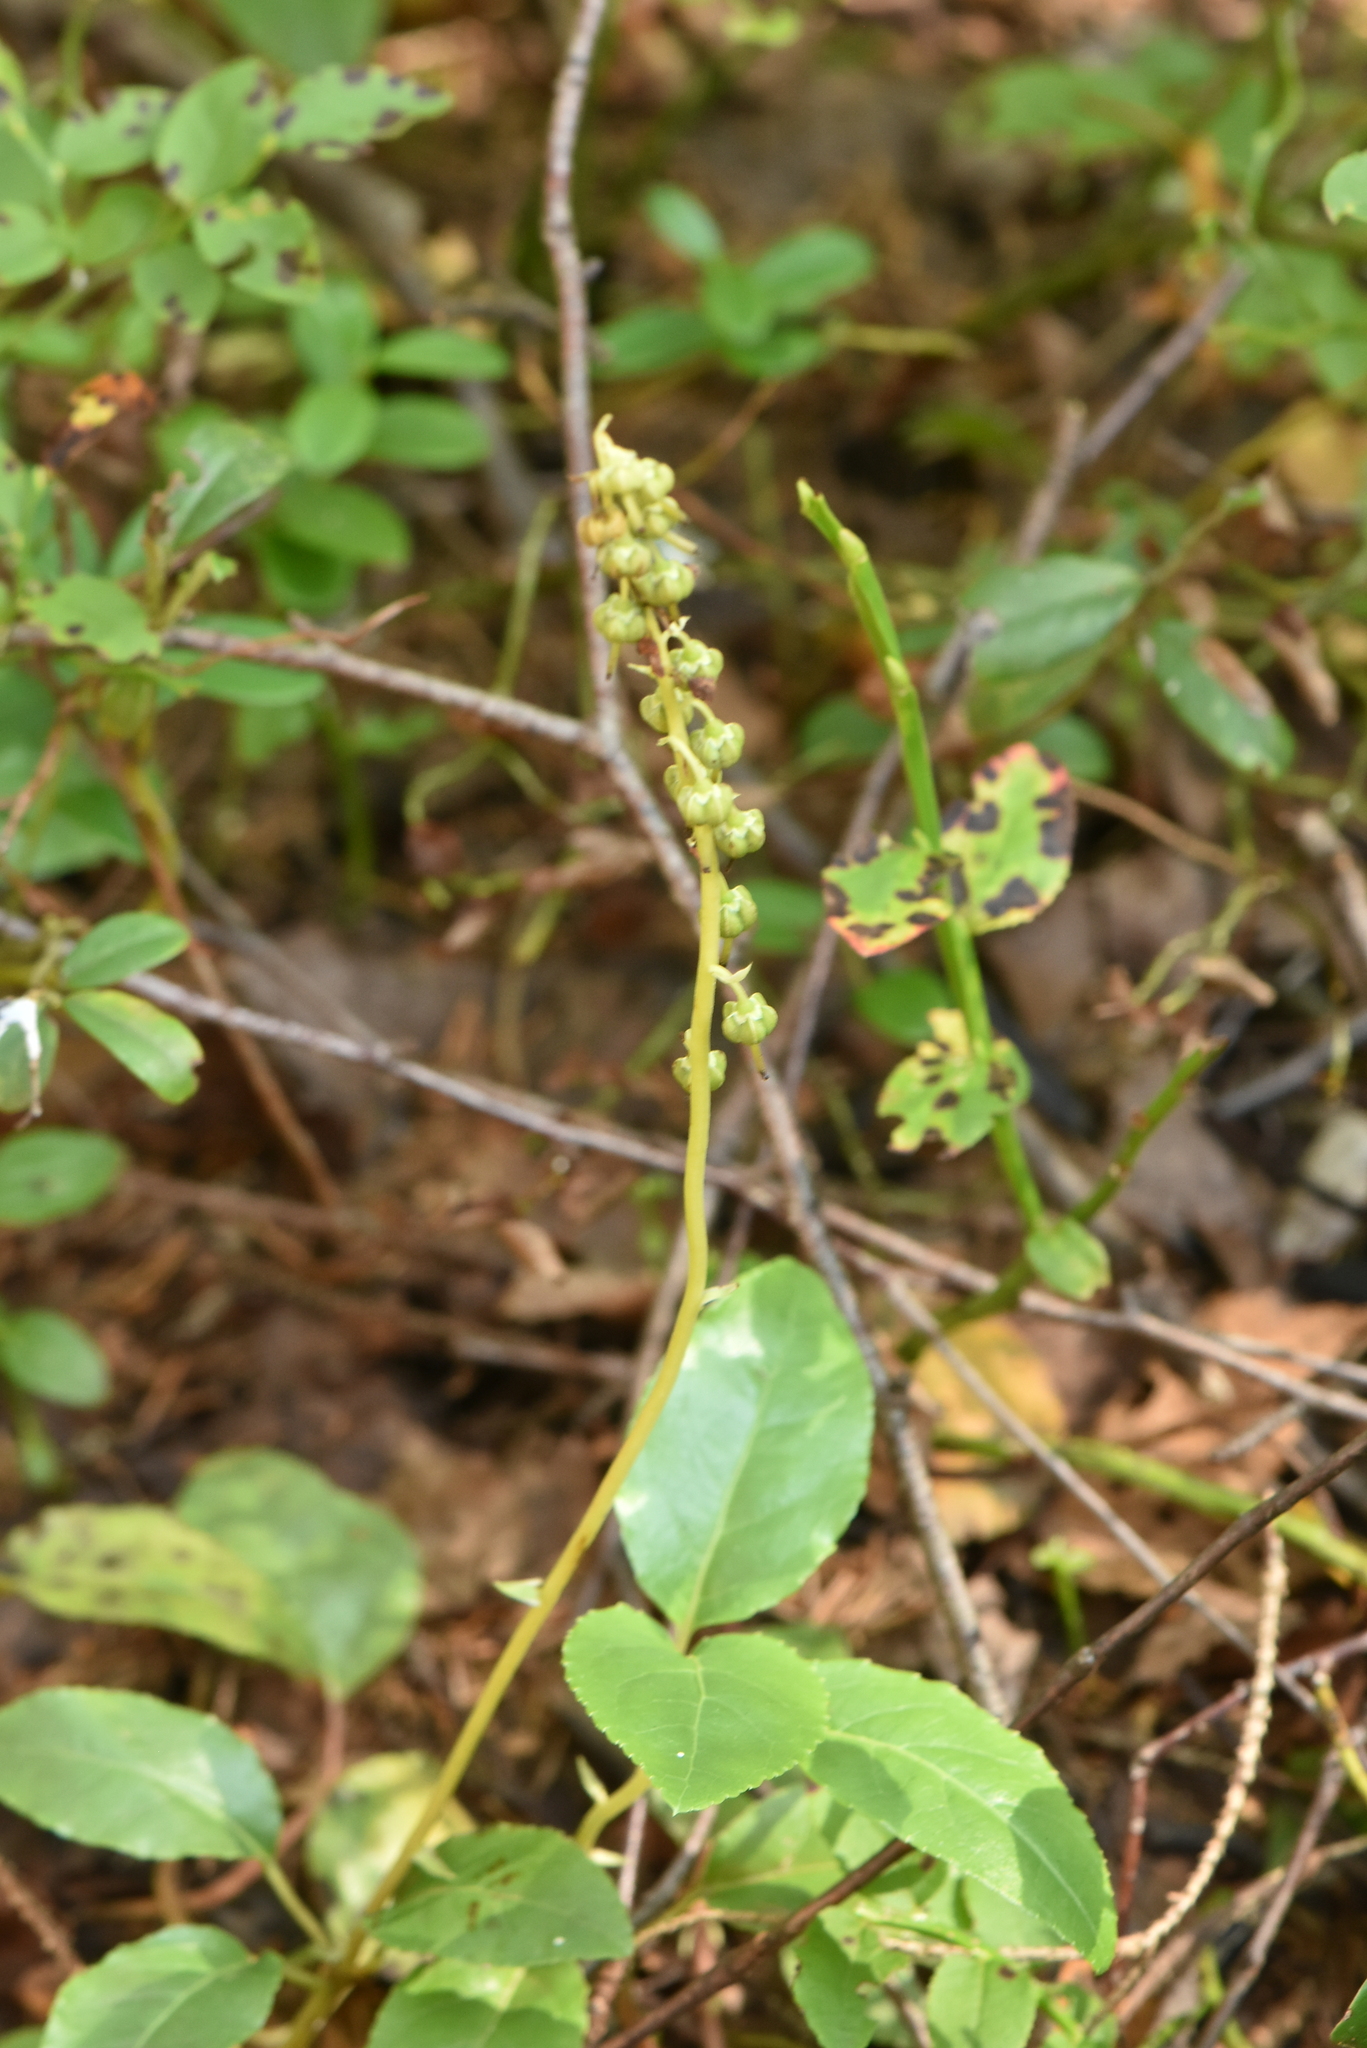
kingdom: Plantae
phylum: Tracheophyta
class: Magnoliopsida
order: Ericales
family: Ericaceae
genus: Orthilia
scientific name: Orthilia secunda
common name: One-sided orthilia
